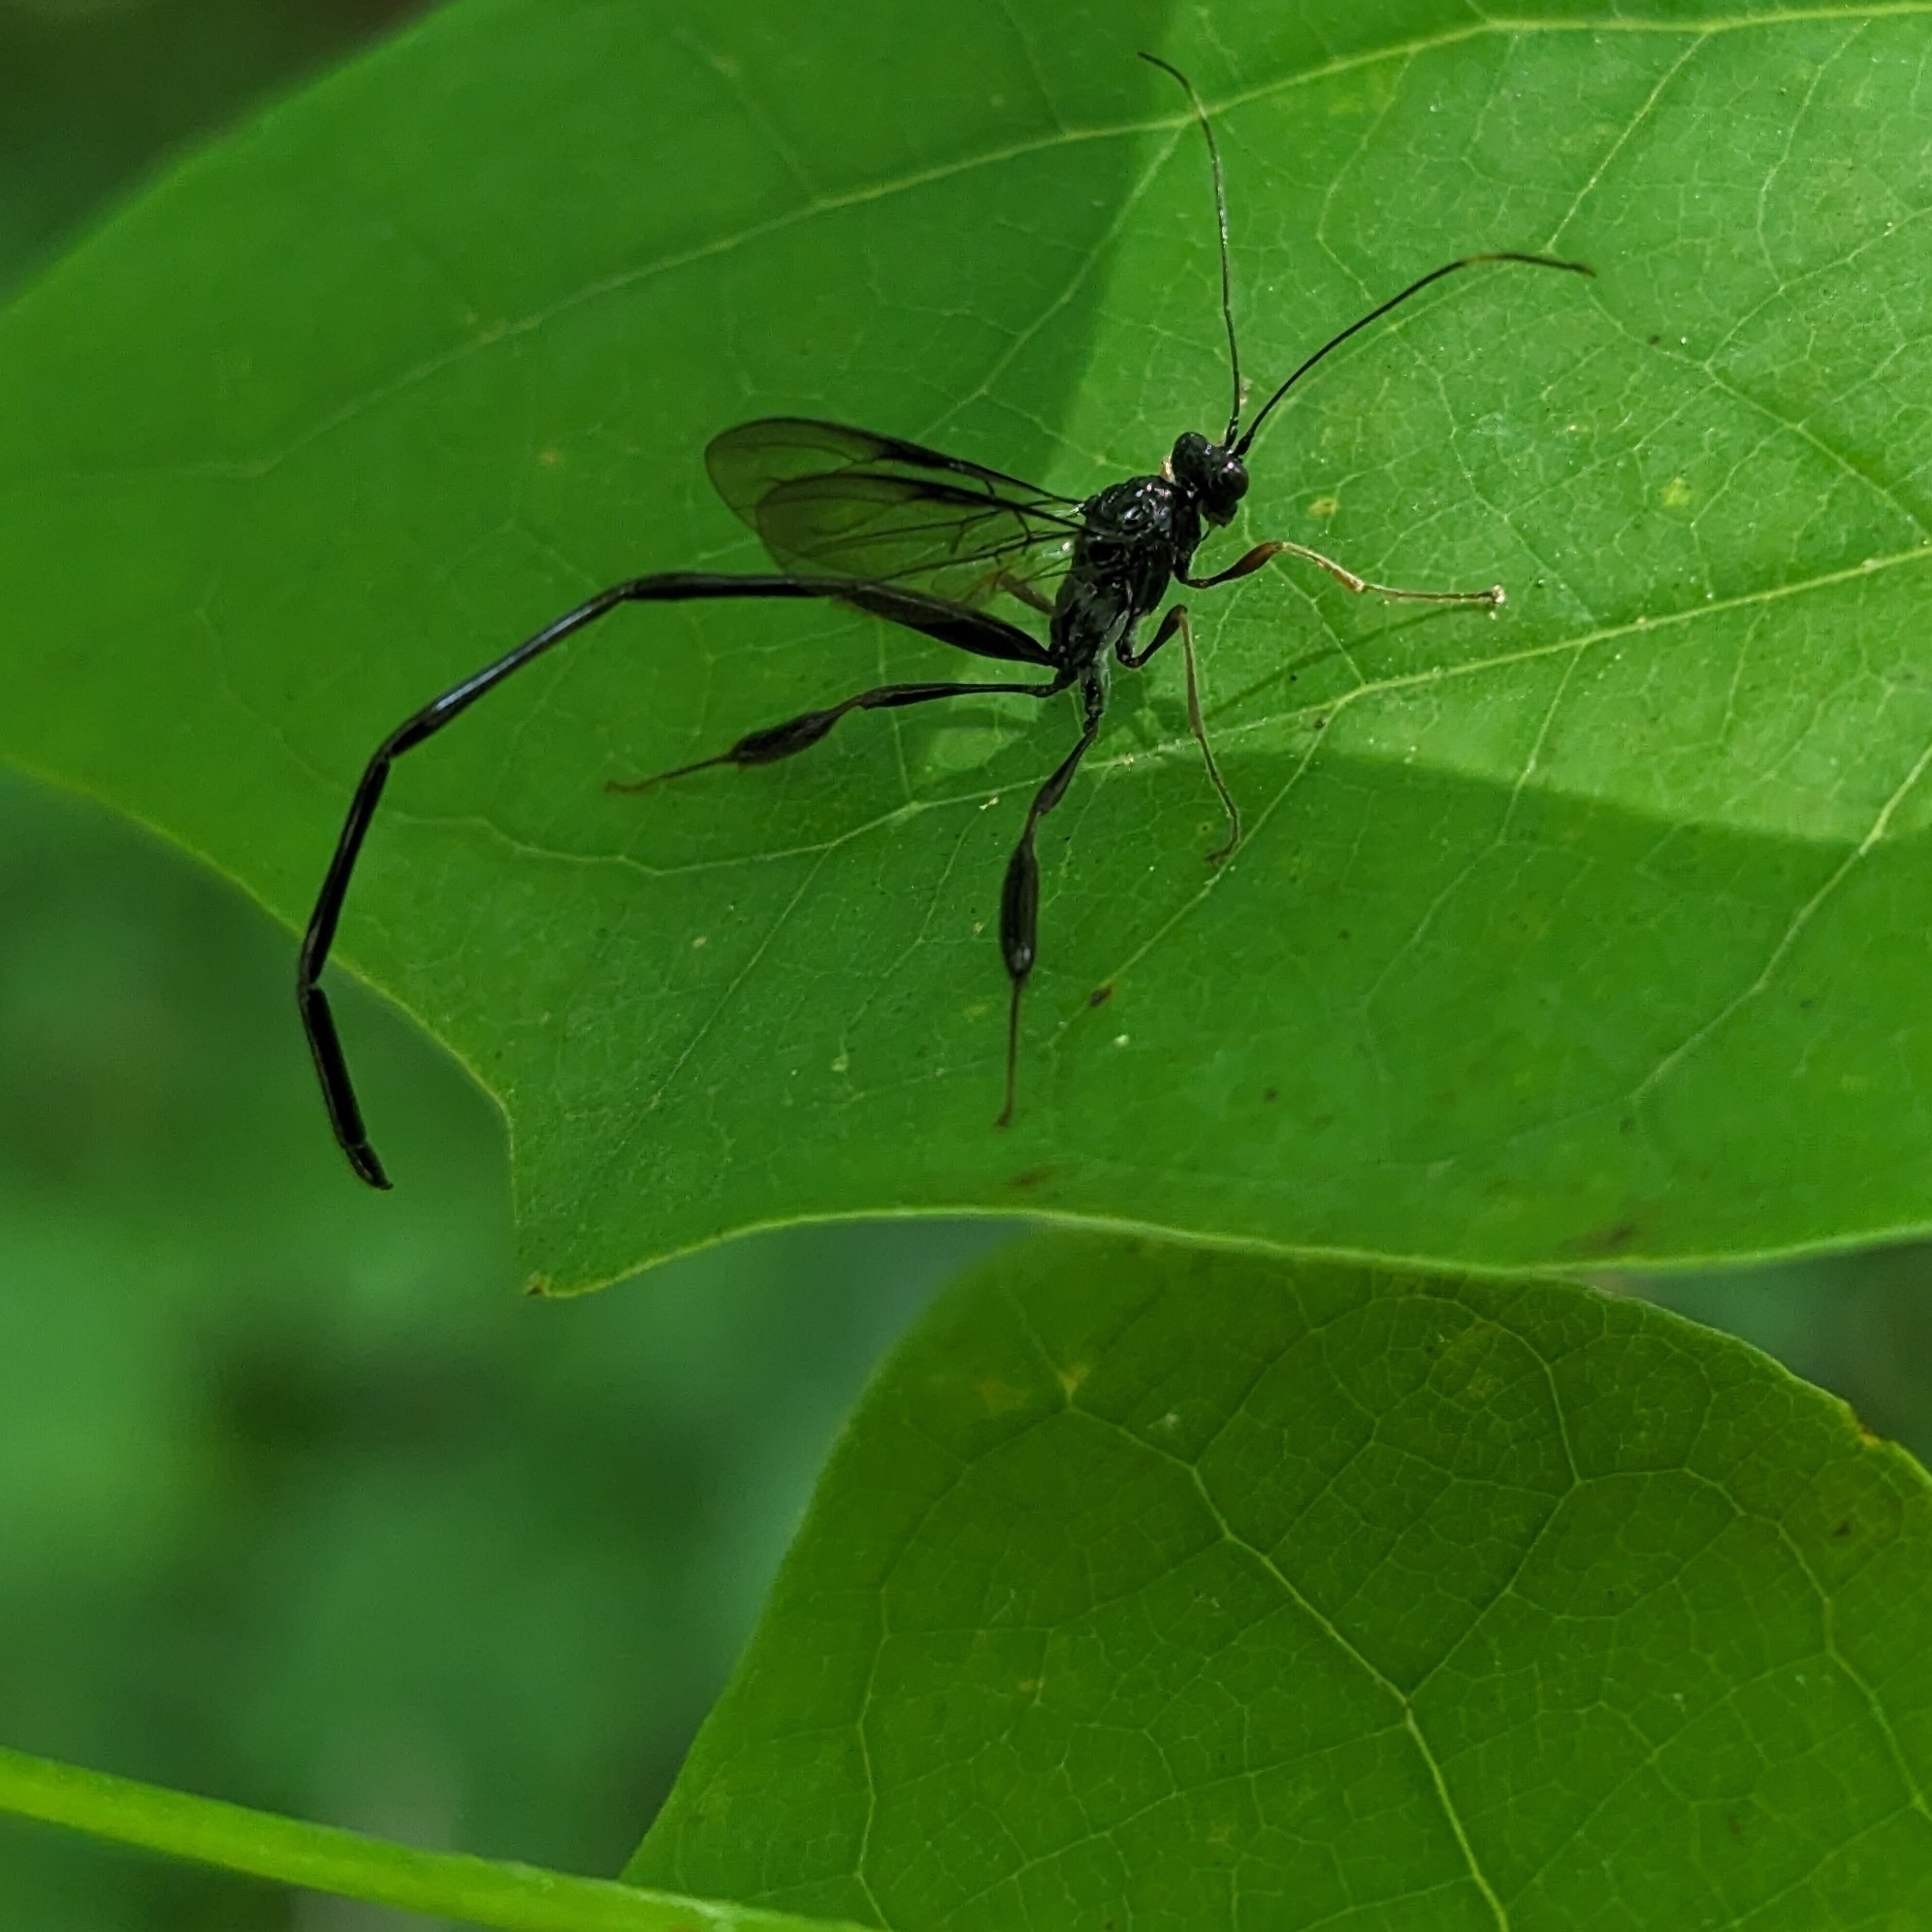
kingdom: Animalia
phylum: Arthropoda
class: Insecta
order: Hymenoptera
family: Pelecinidae
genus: Pelecinus
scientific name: Pelecinus polyturator
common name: American pelecinid wasp
